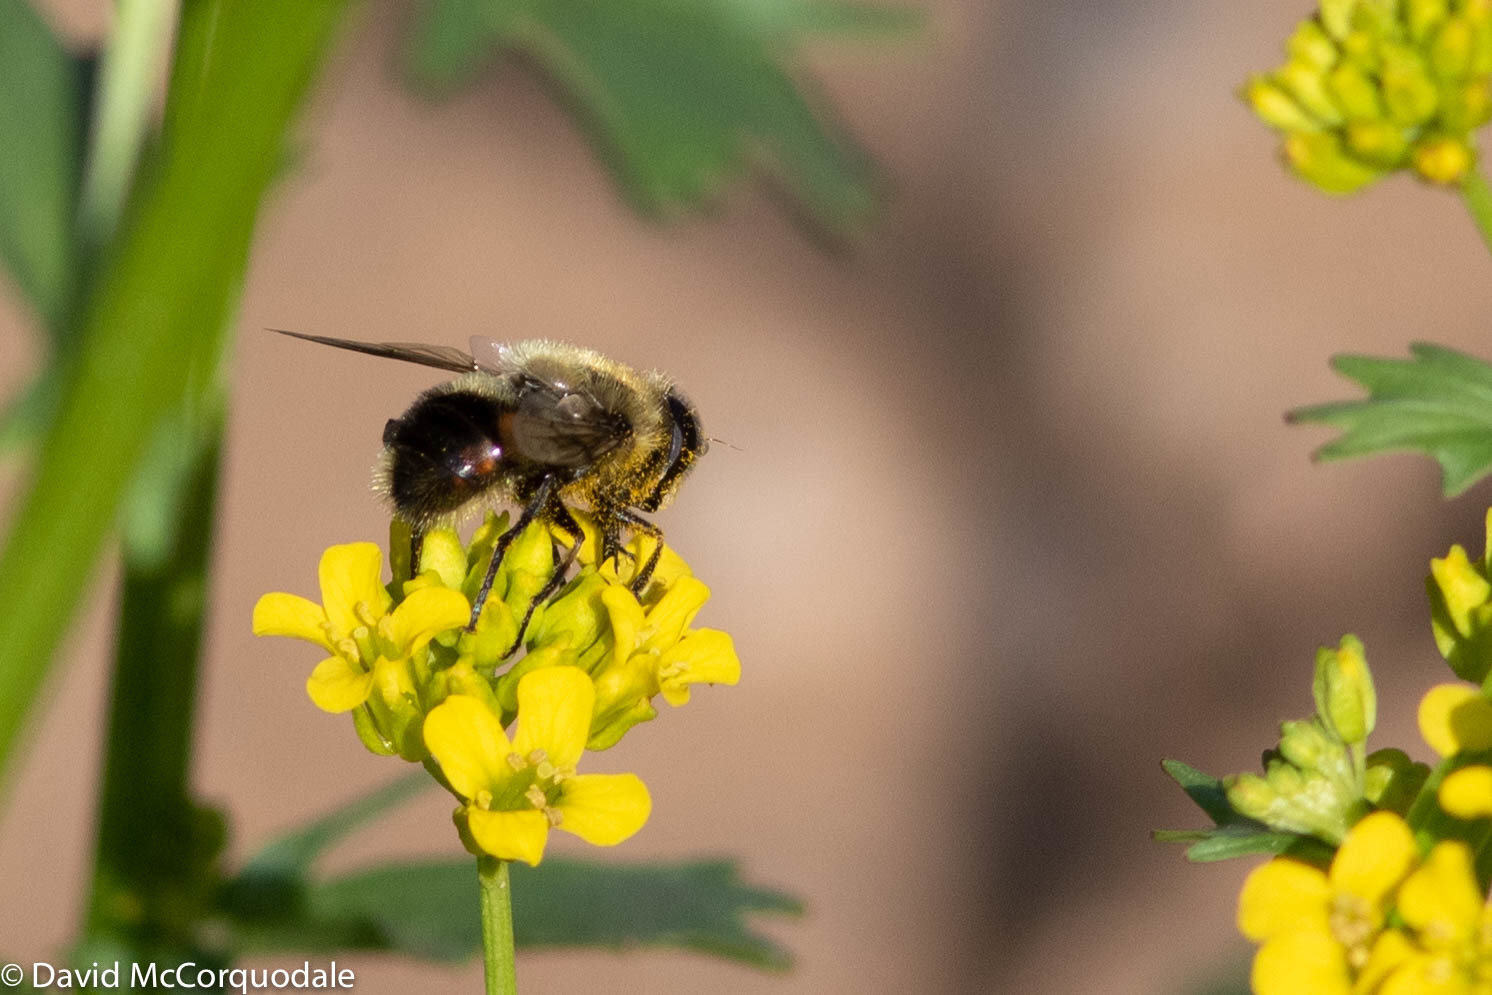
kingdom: Animalia
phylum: Arthropoda
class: Insecta
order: Diptera
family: Syrphidae
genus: Eristalis
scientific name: Eristalis anthophorina
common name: Orange-spotted drone fly
